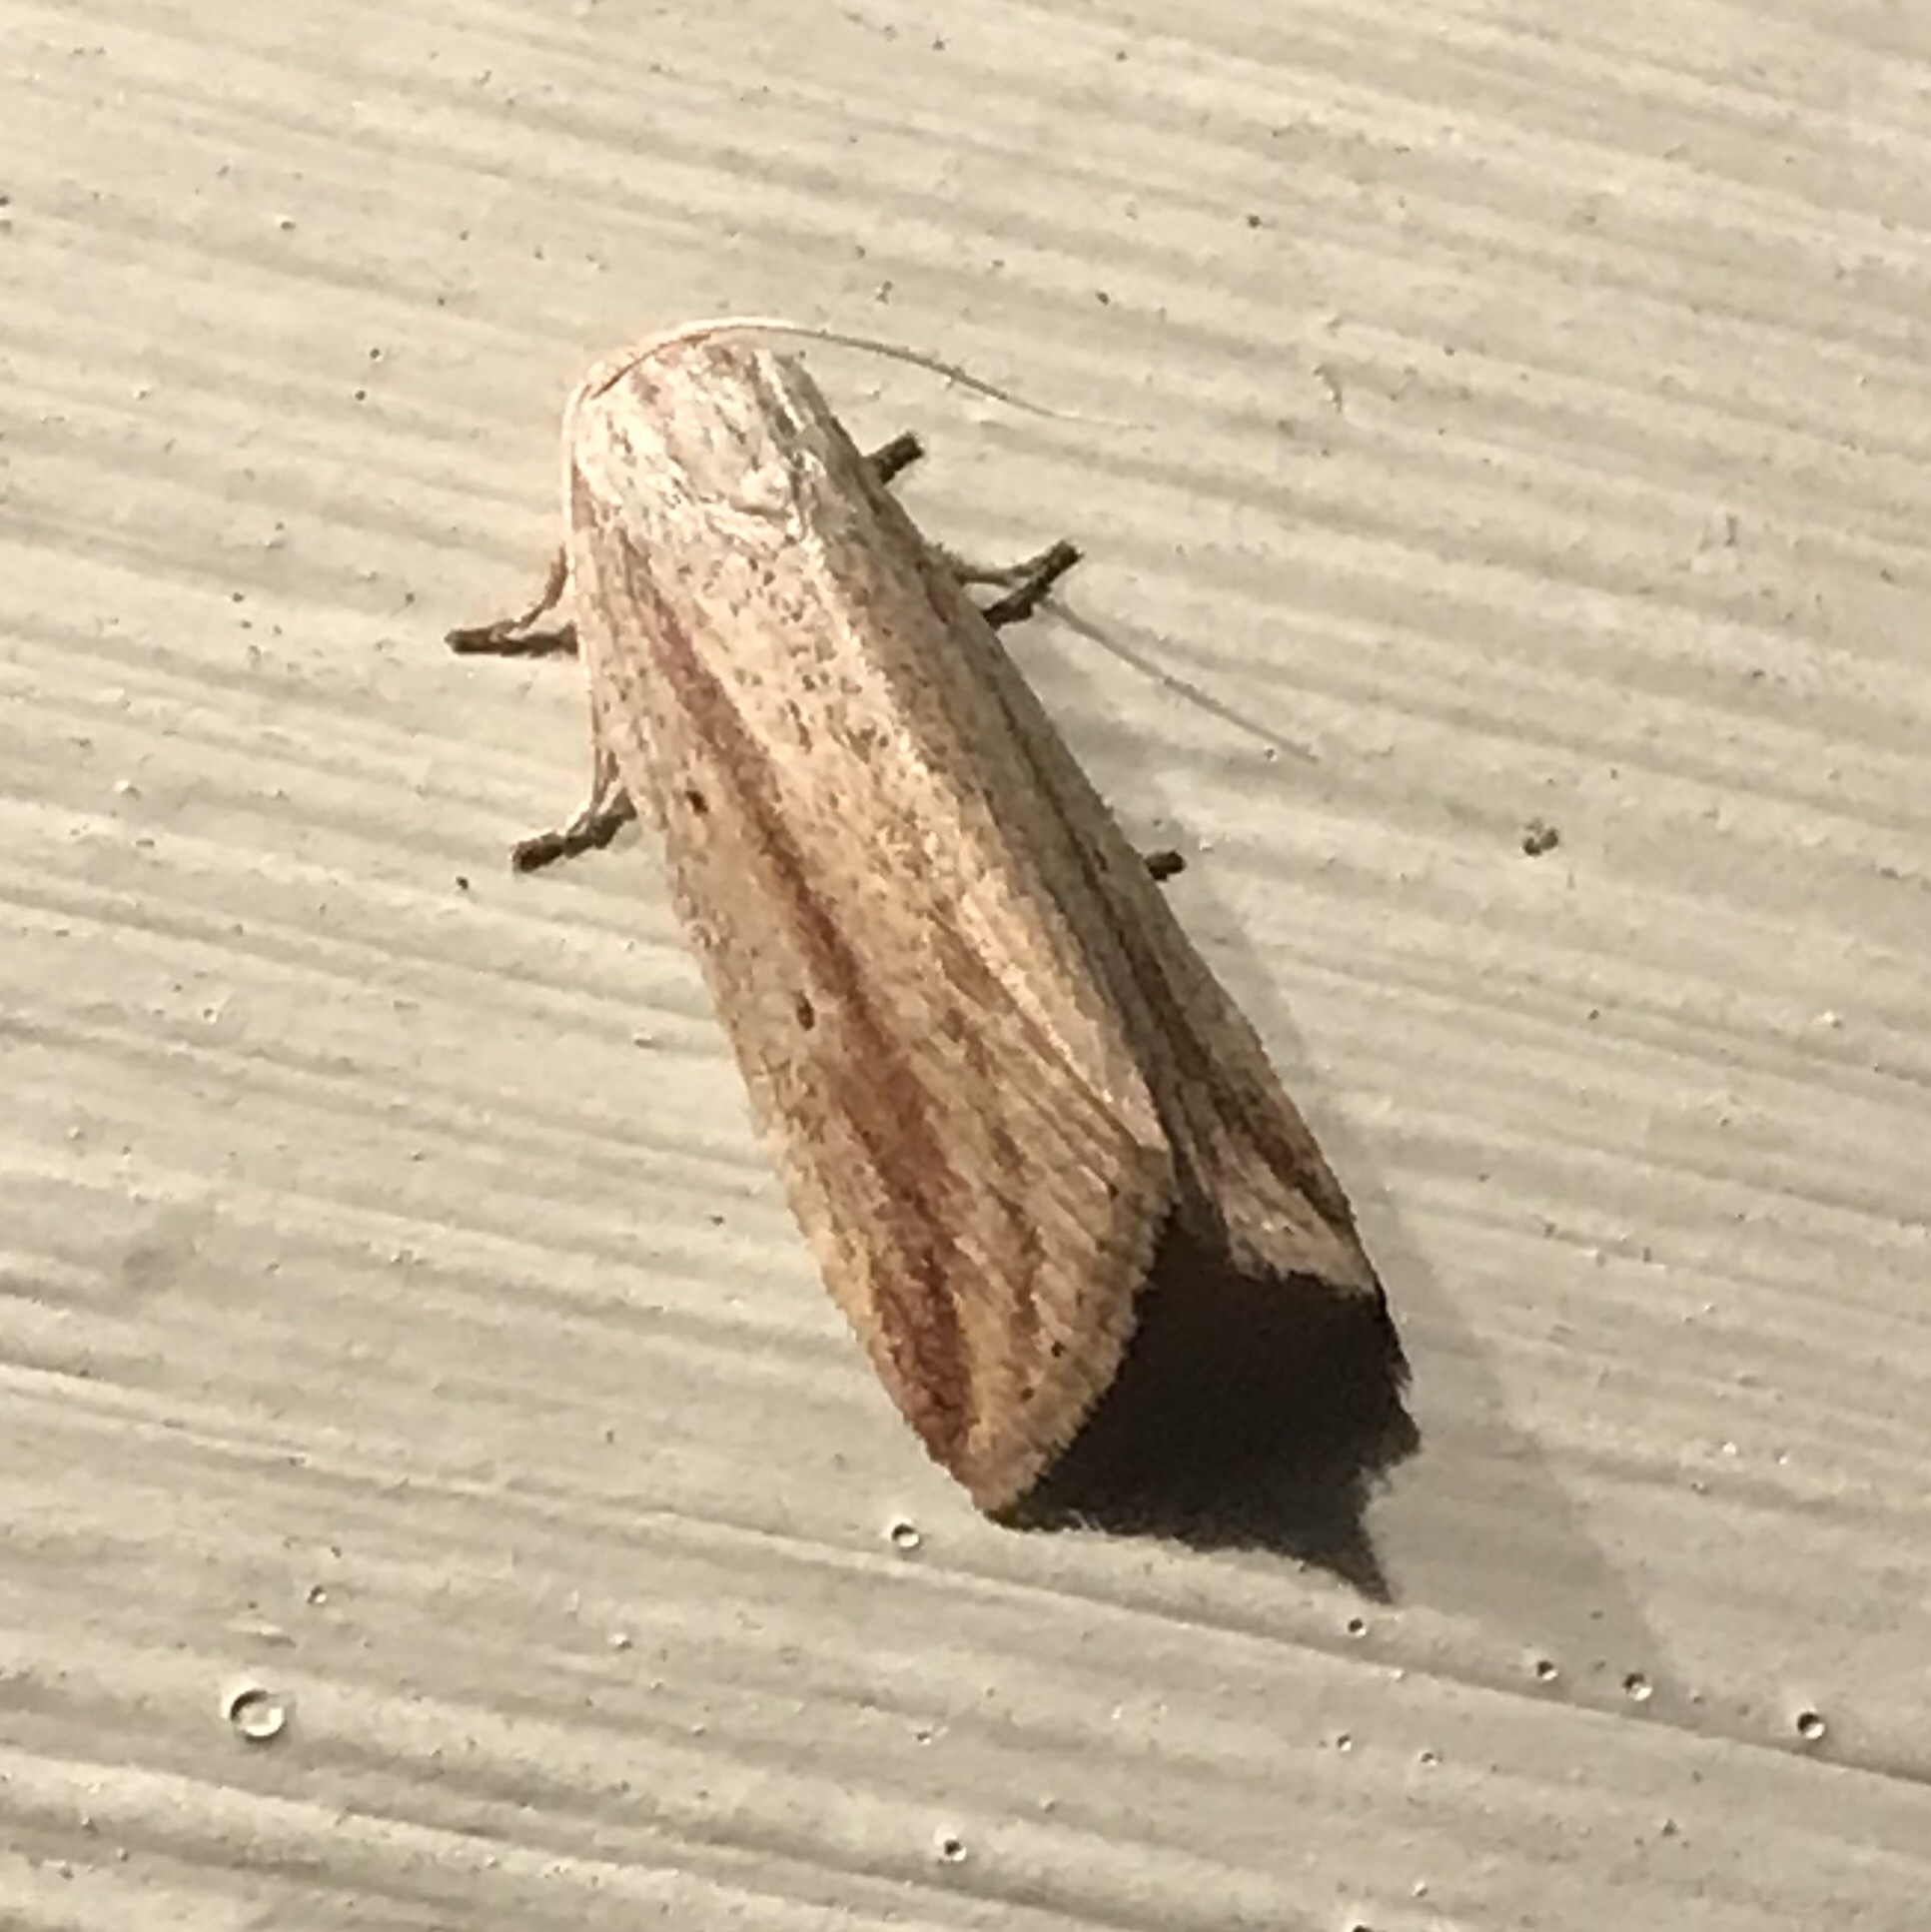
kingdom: Animalia
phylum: Arthropoda
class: Insecta
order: Lepidoptera
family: Noctuidae
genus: Amolita
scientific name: Amolita fessa
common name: Feeble grass moth
